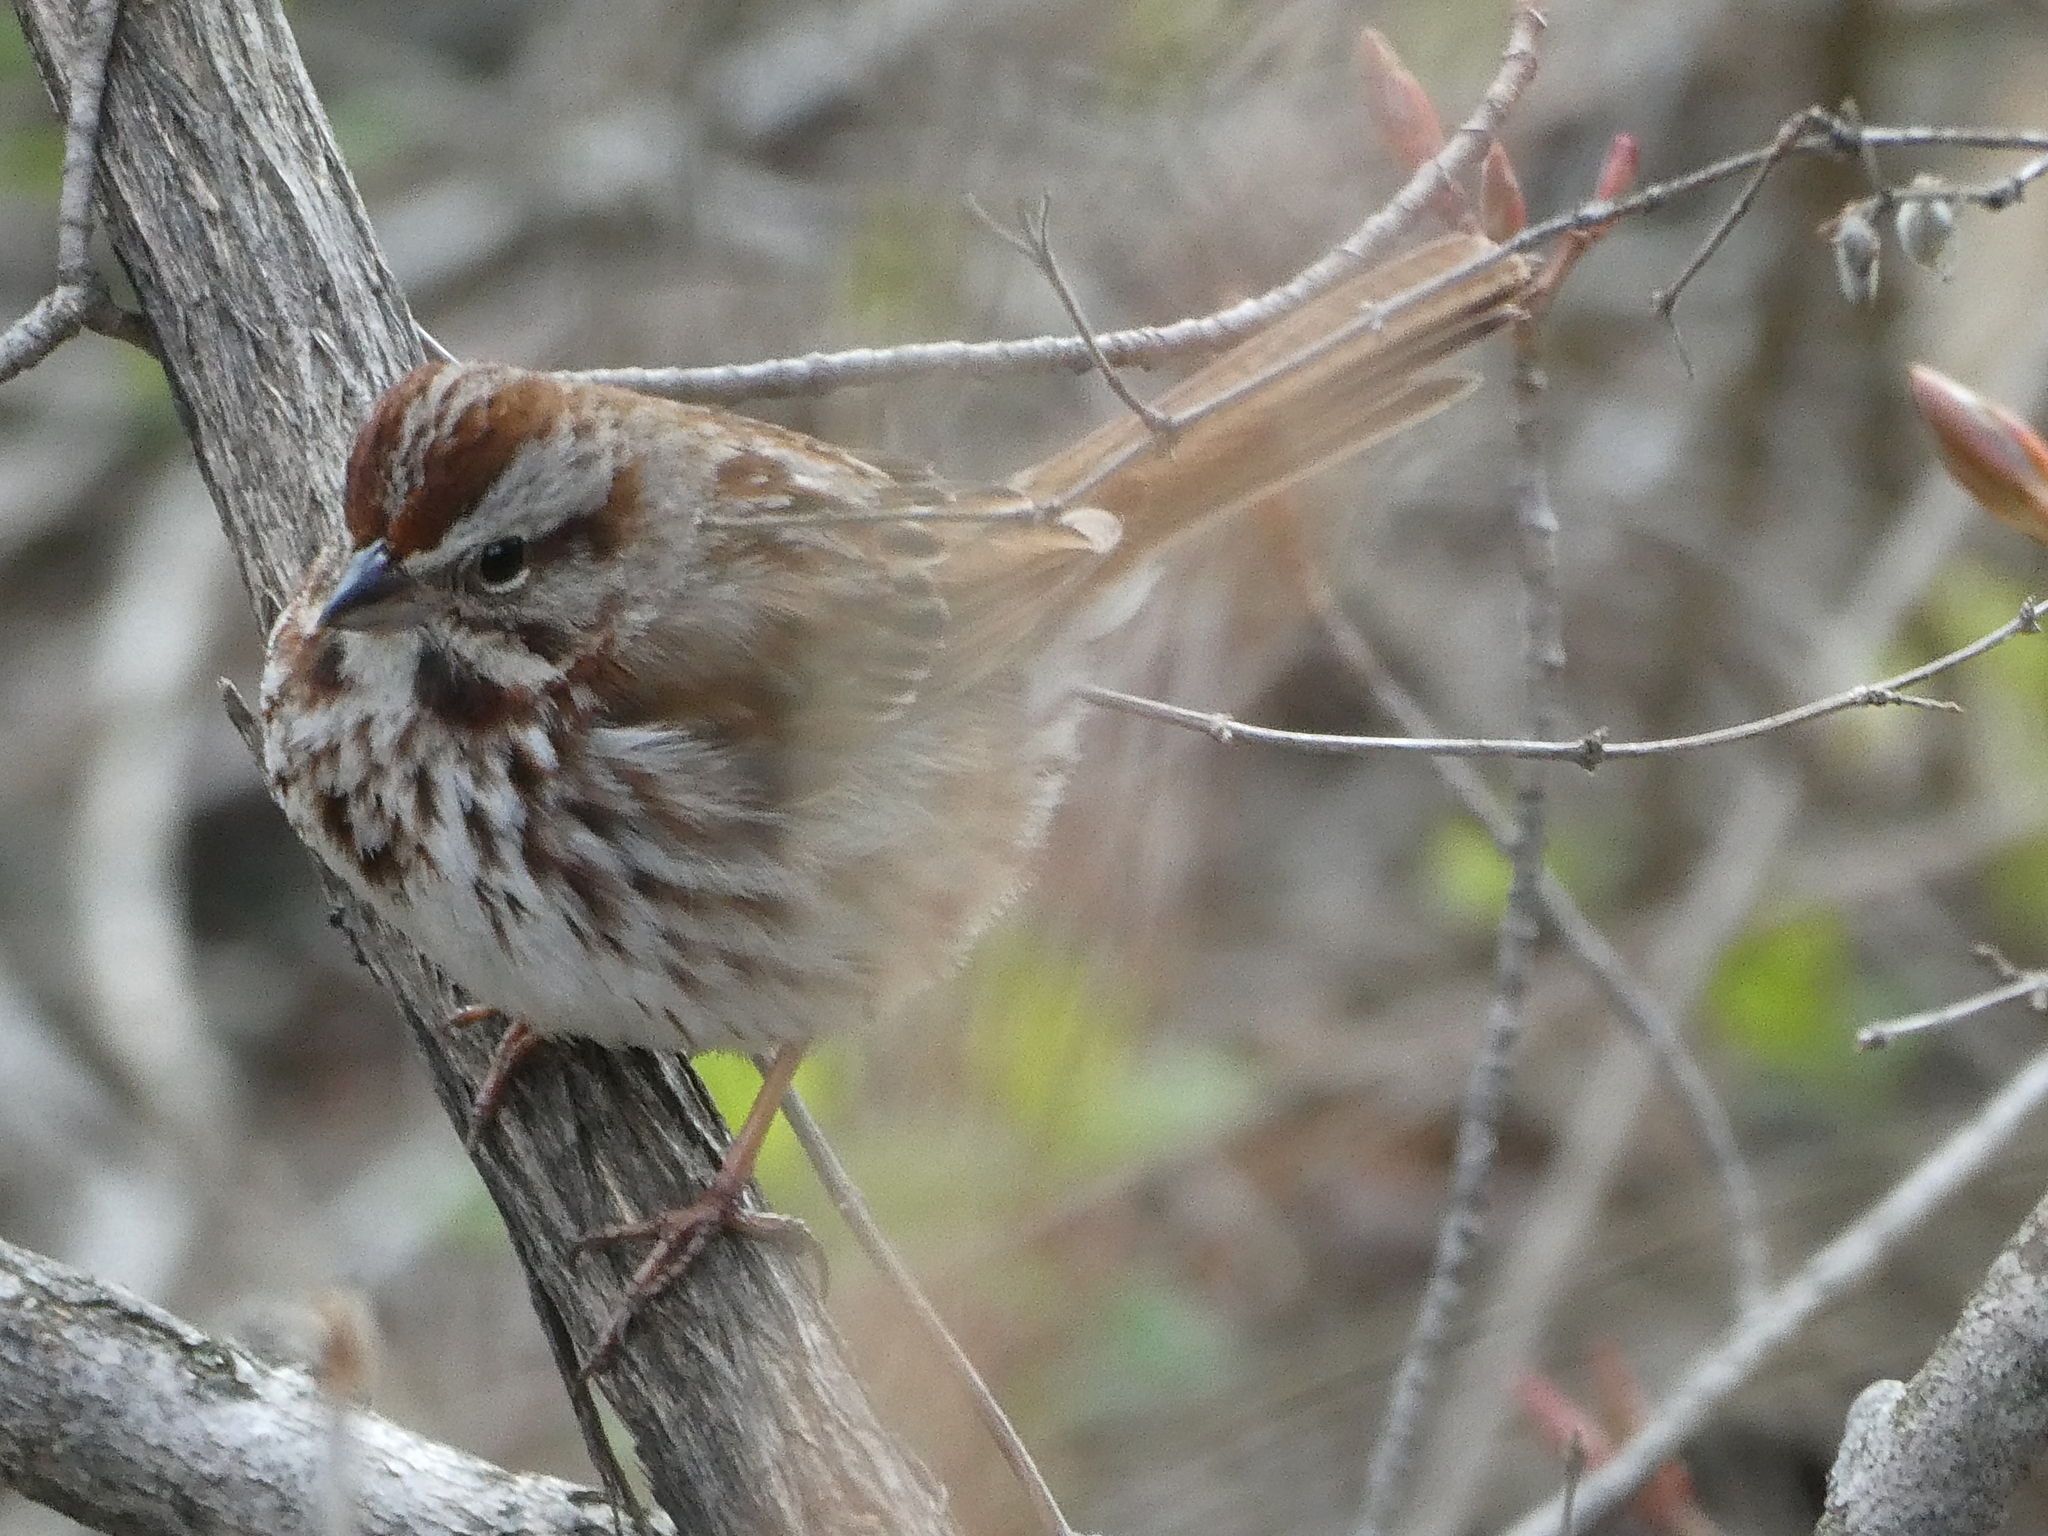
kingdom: Animalia
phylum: Chordata
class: Aves
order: Passeriformes
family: Passerellidae
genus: Melospiza
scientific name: Melospiza melodia
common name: Song sparrow
